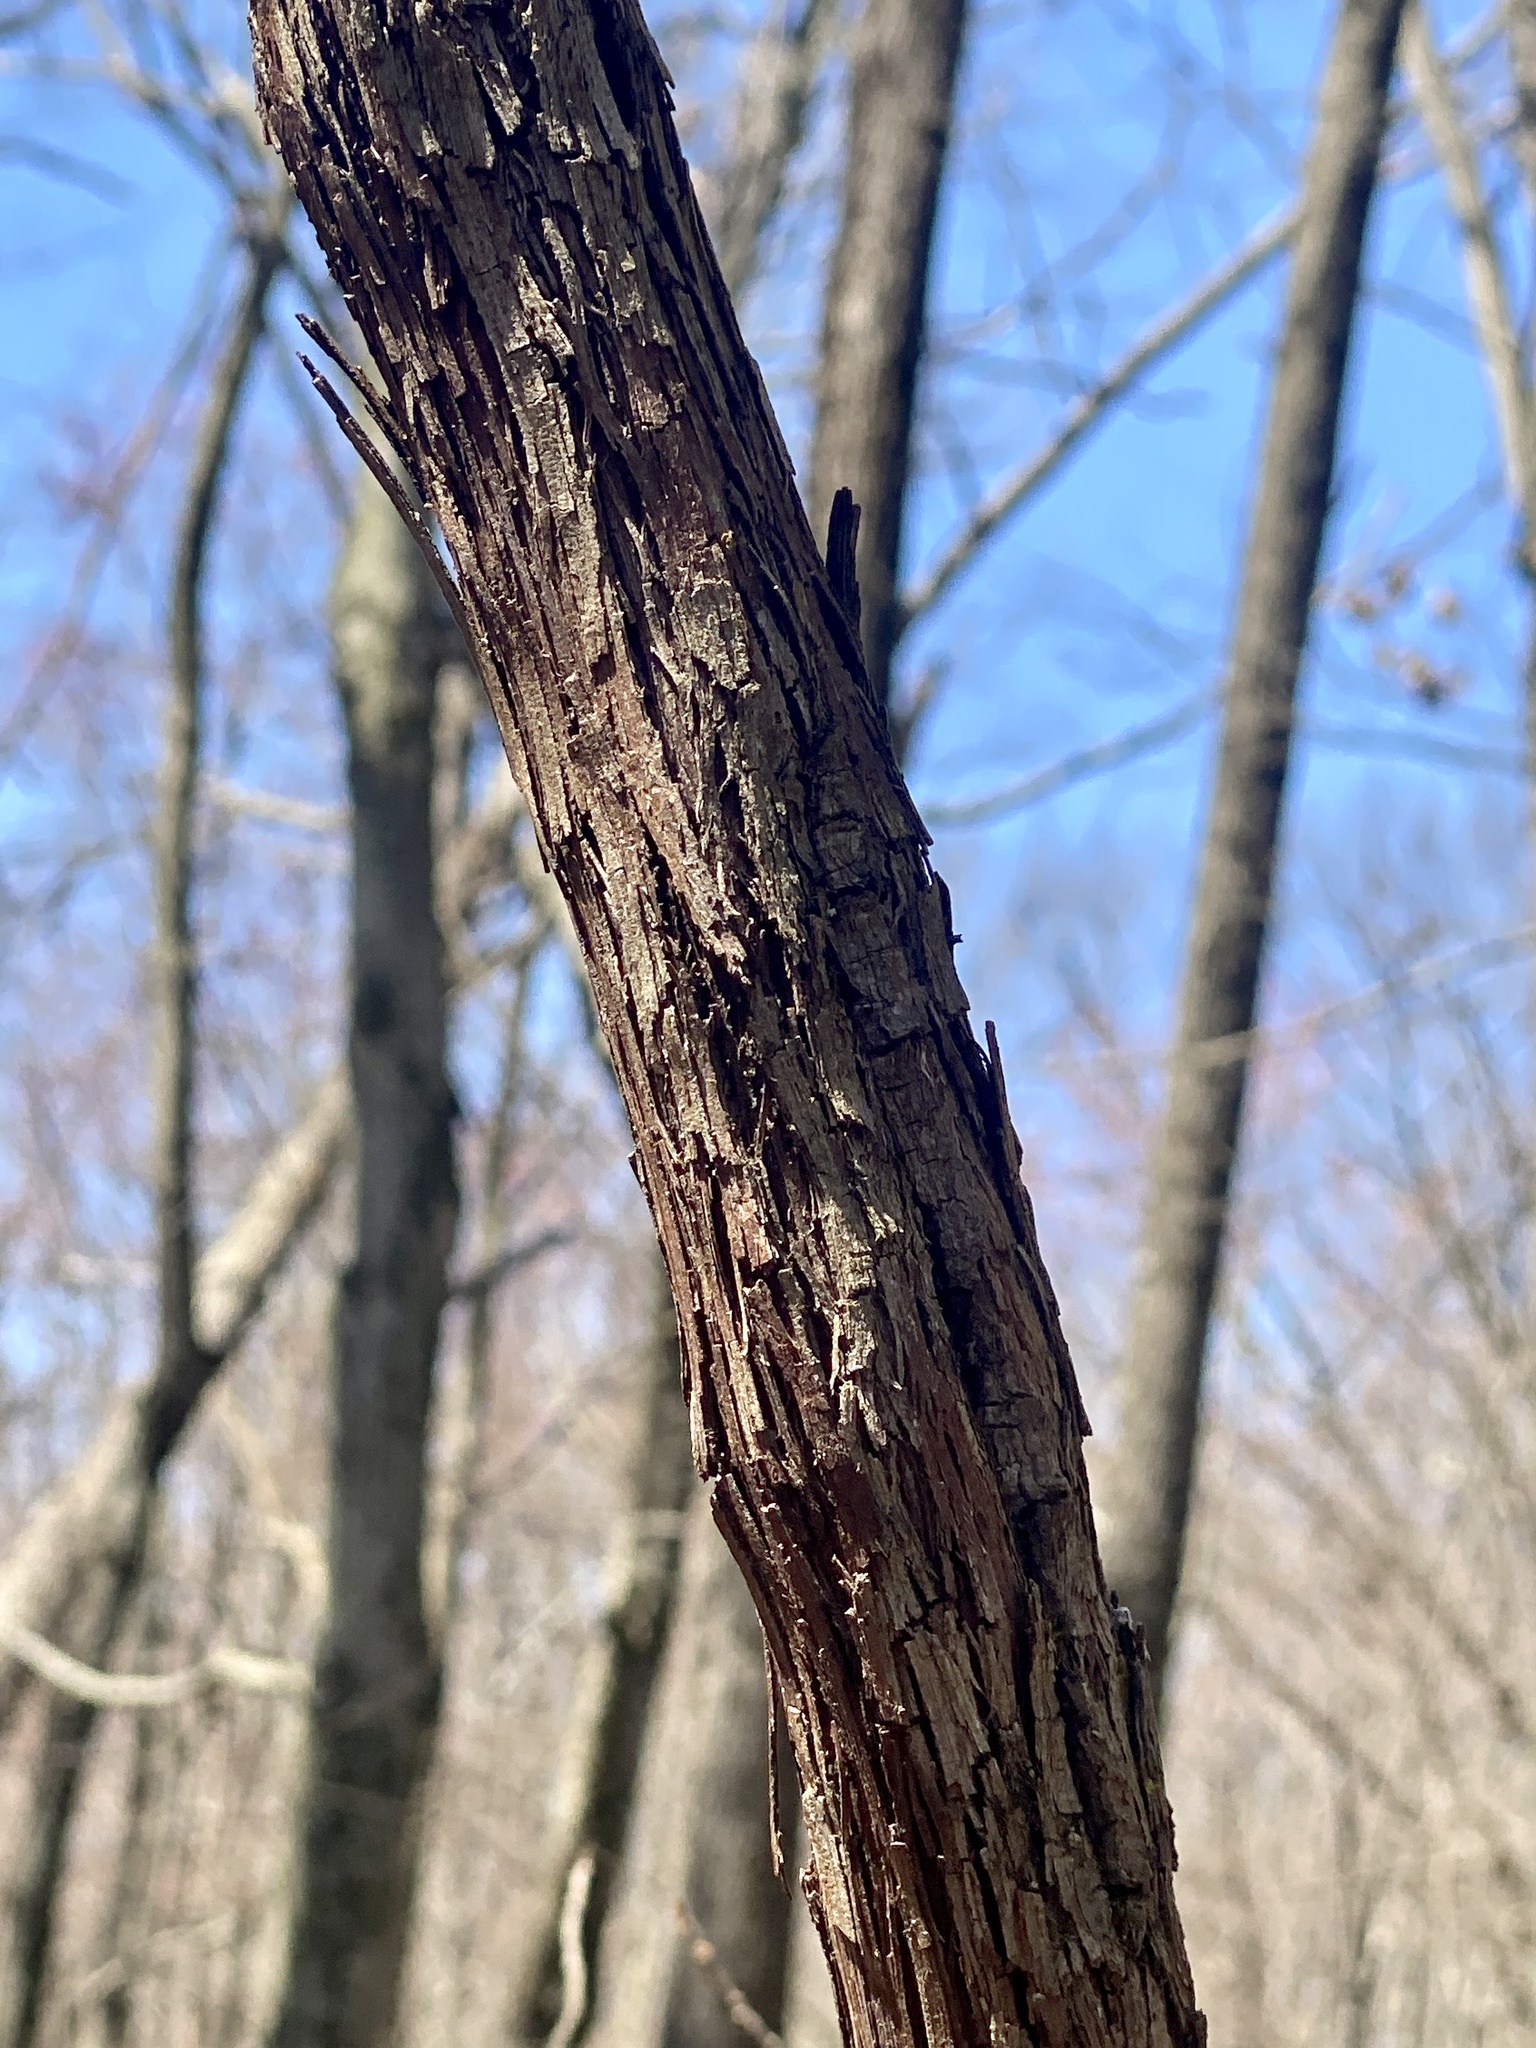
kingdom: Plantae
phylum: Tracheophyta
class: Magnoliopsida
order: Vitales
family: Vitaceae
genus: Vitis
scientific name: Vitis
